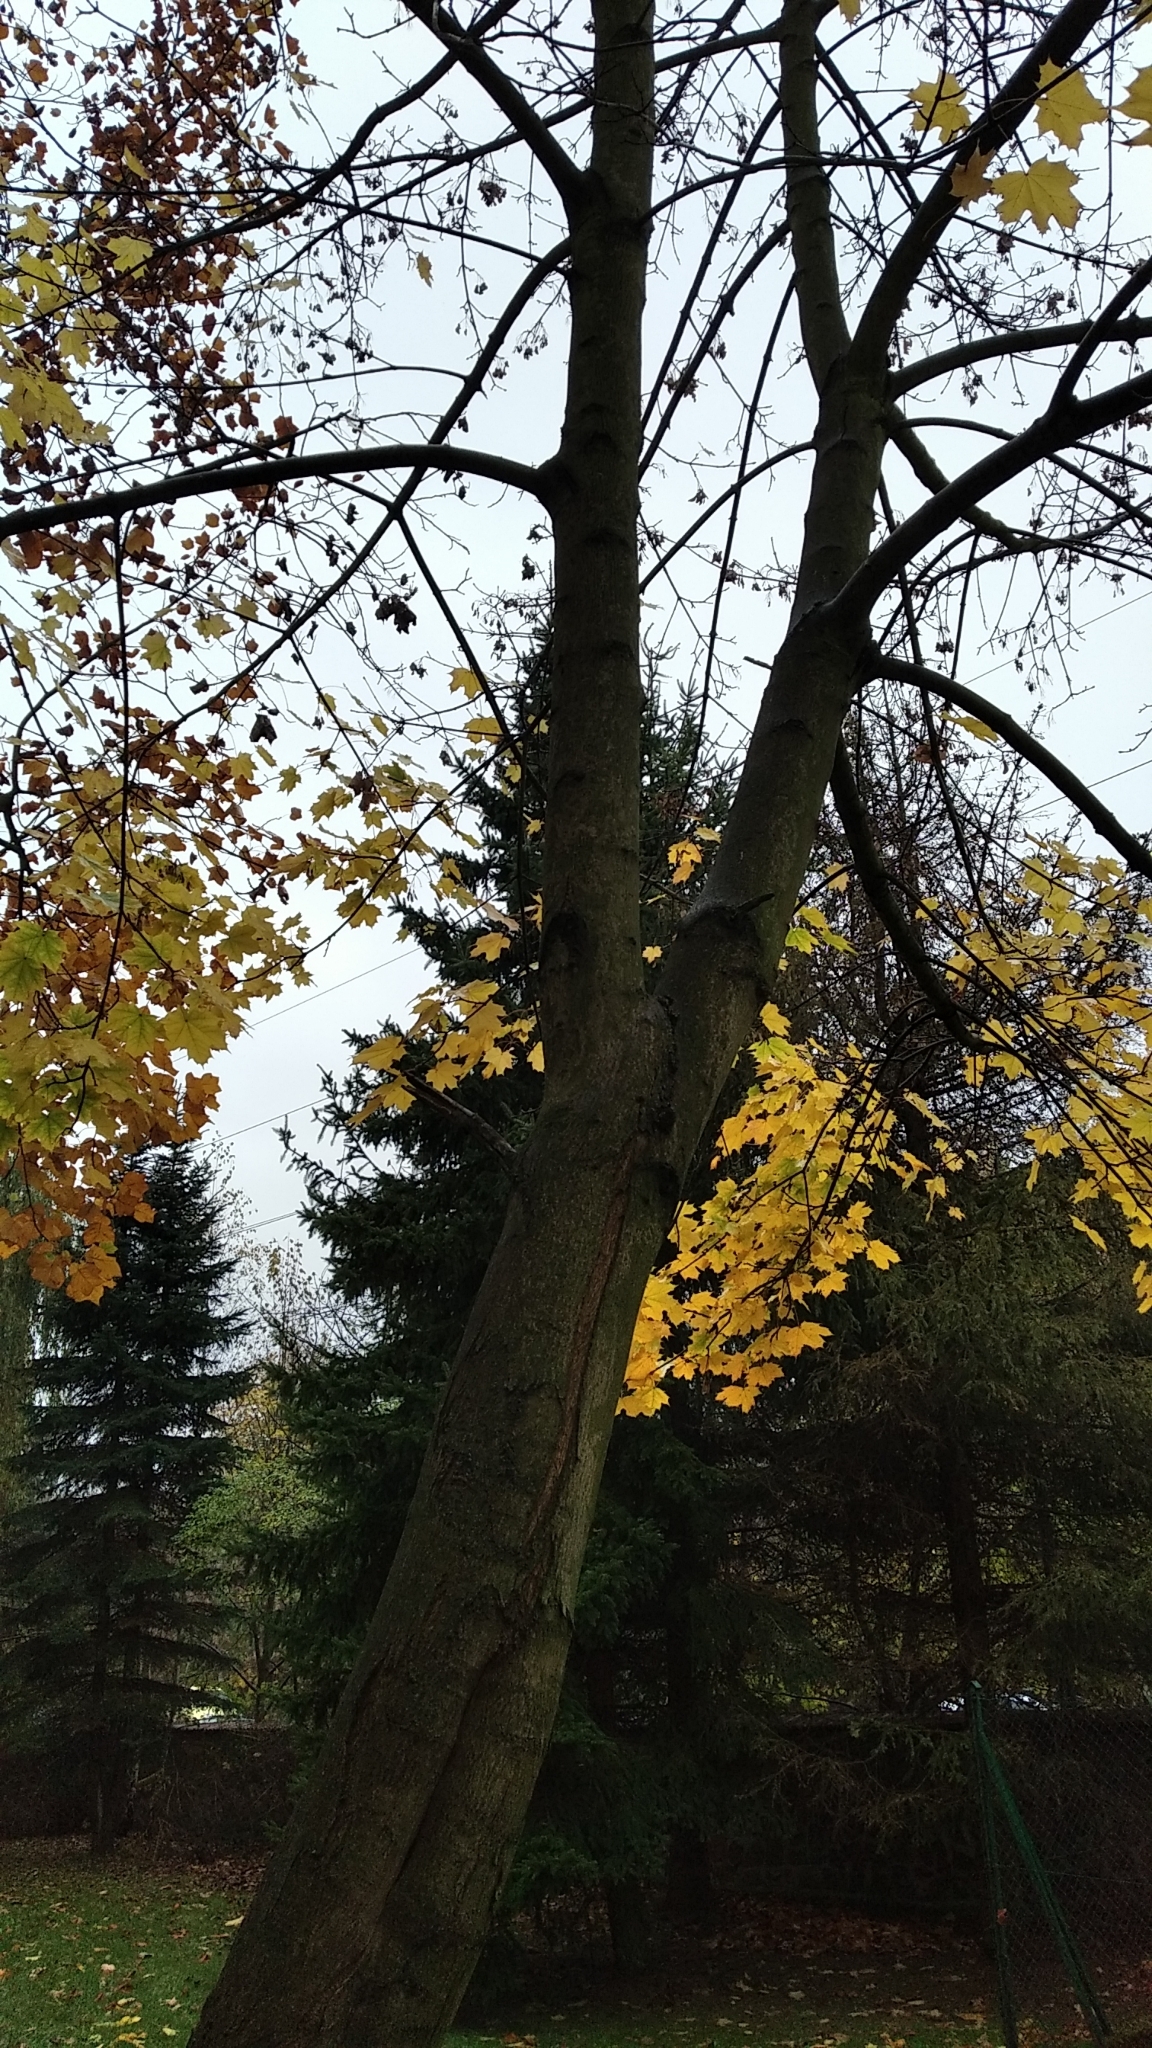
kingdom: Plantae
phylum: Tracheophyta
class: Magnoliopsida
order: Sapindales
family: Sapindaceae
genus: Acer
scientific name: Acer platanoides
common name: Norway maple
